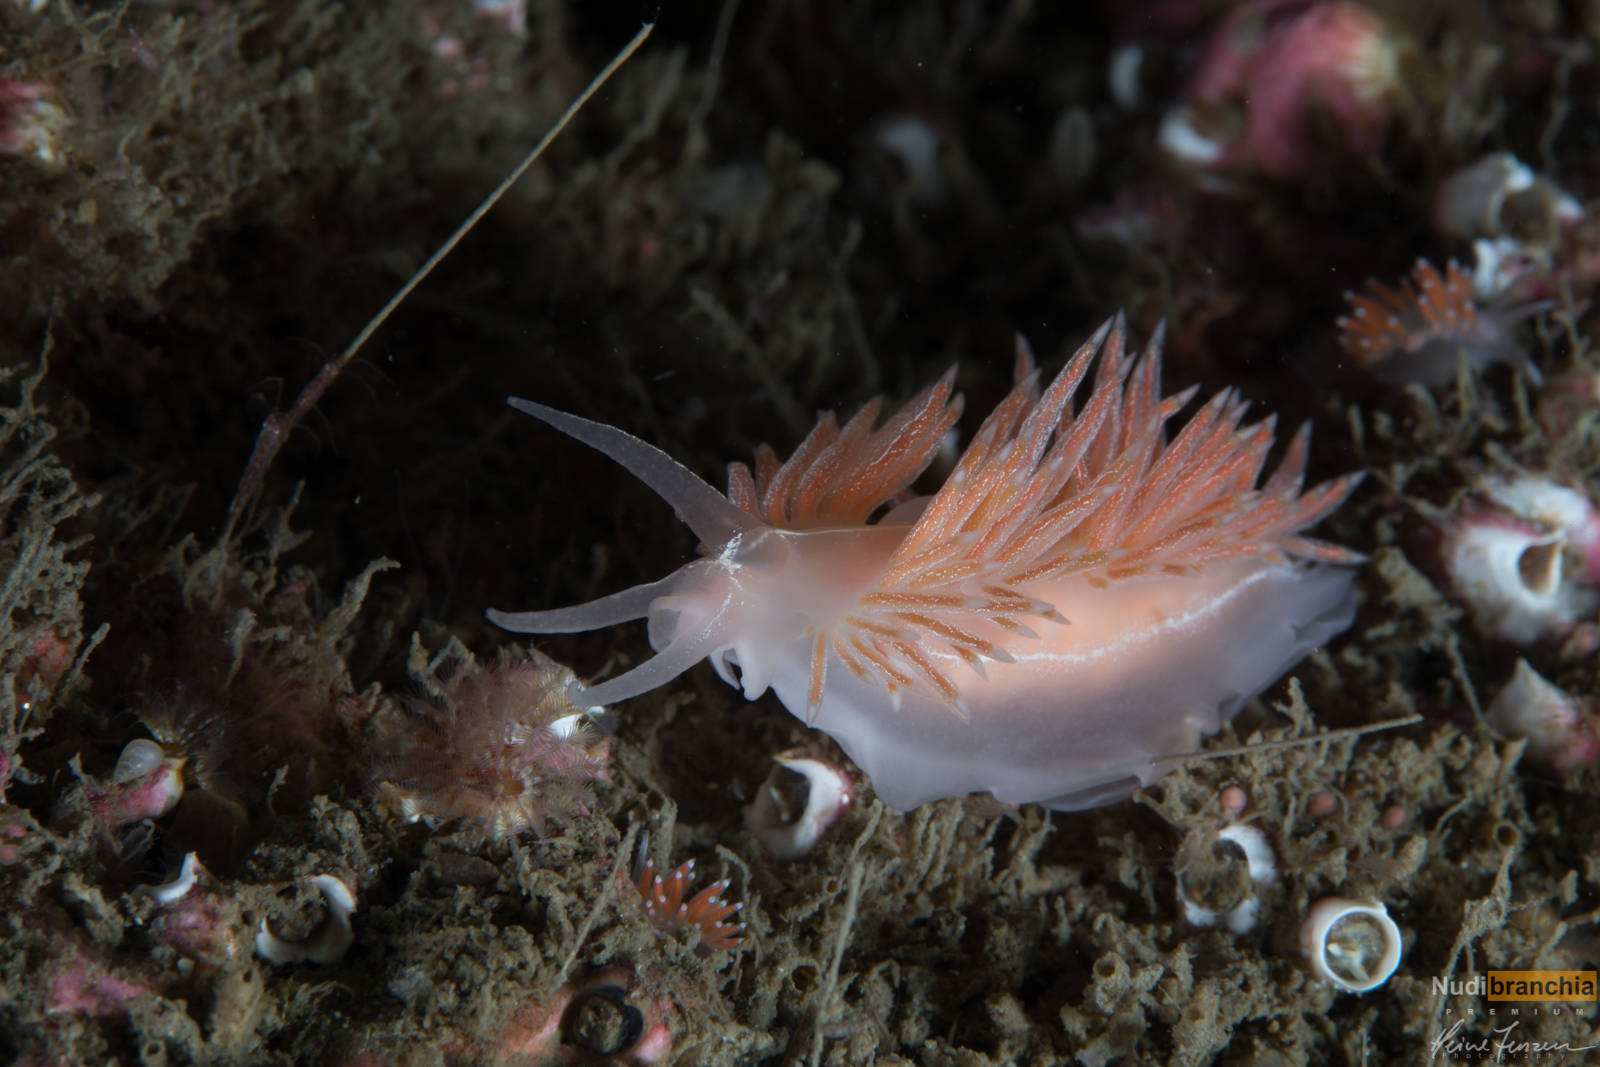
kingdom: Animalia
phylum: Mollusca
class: Gastropoda
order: Nudibranchia
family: Coryphellidae
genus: Coryphella
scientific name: Coryphella chriskaugei
